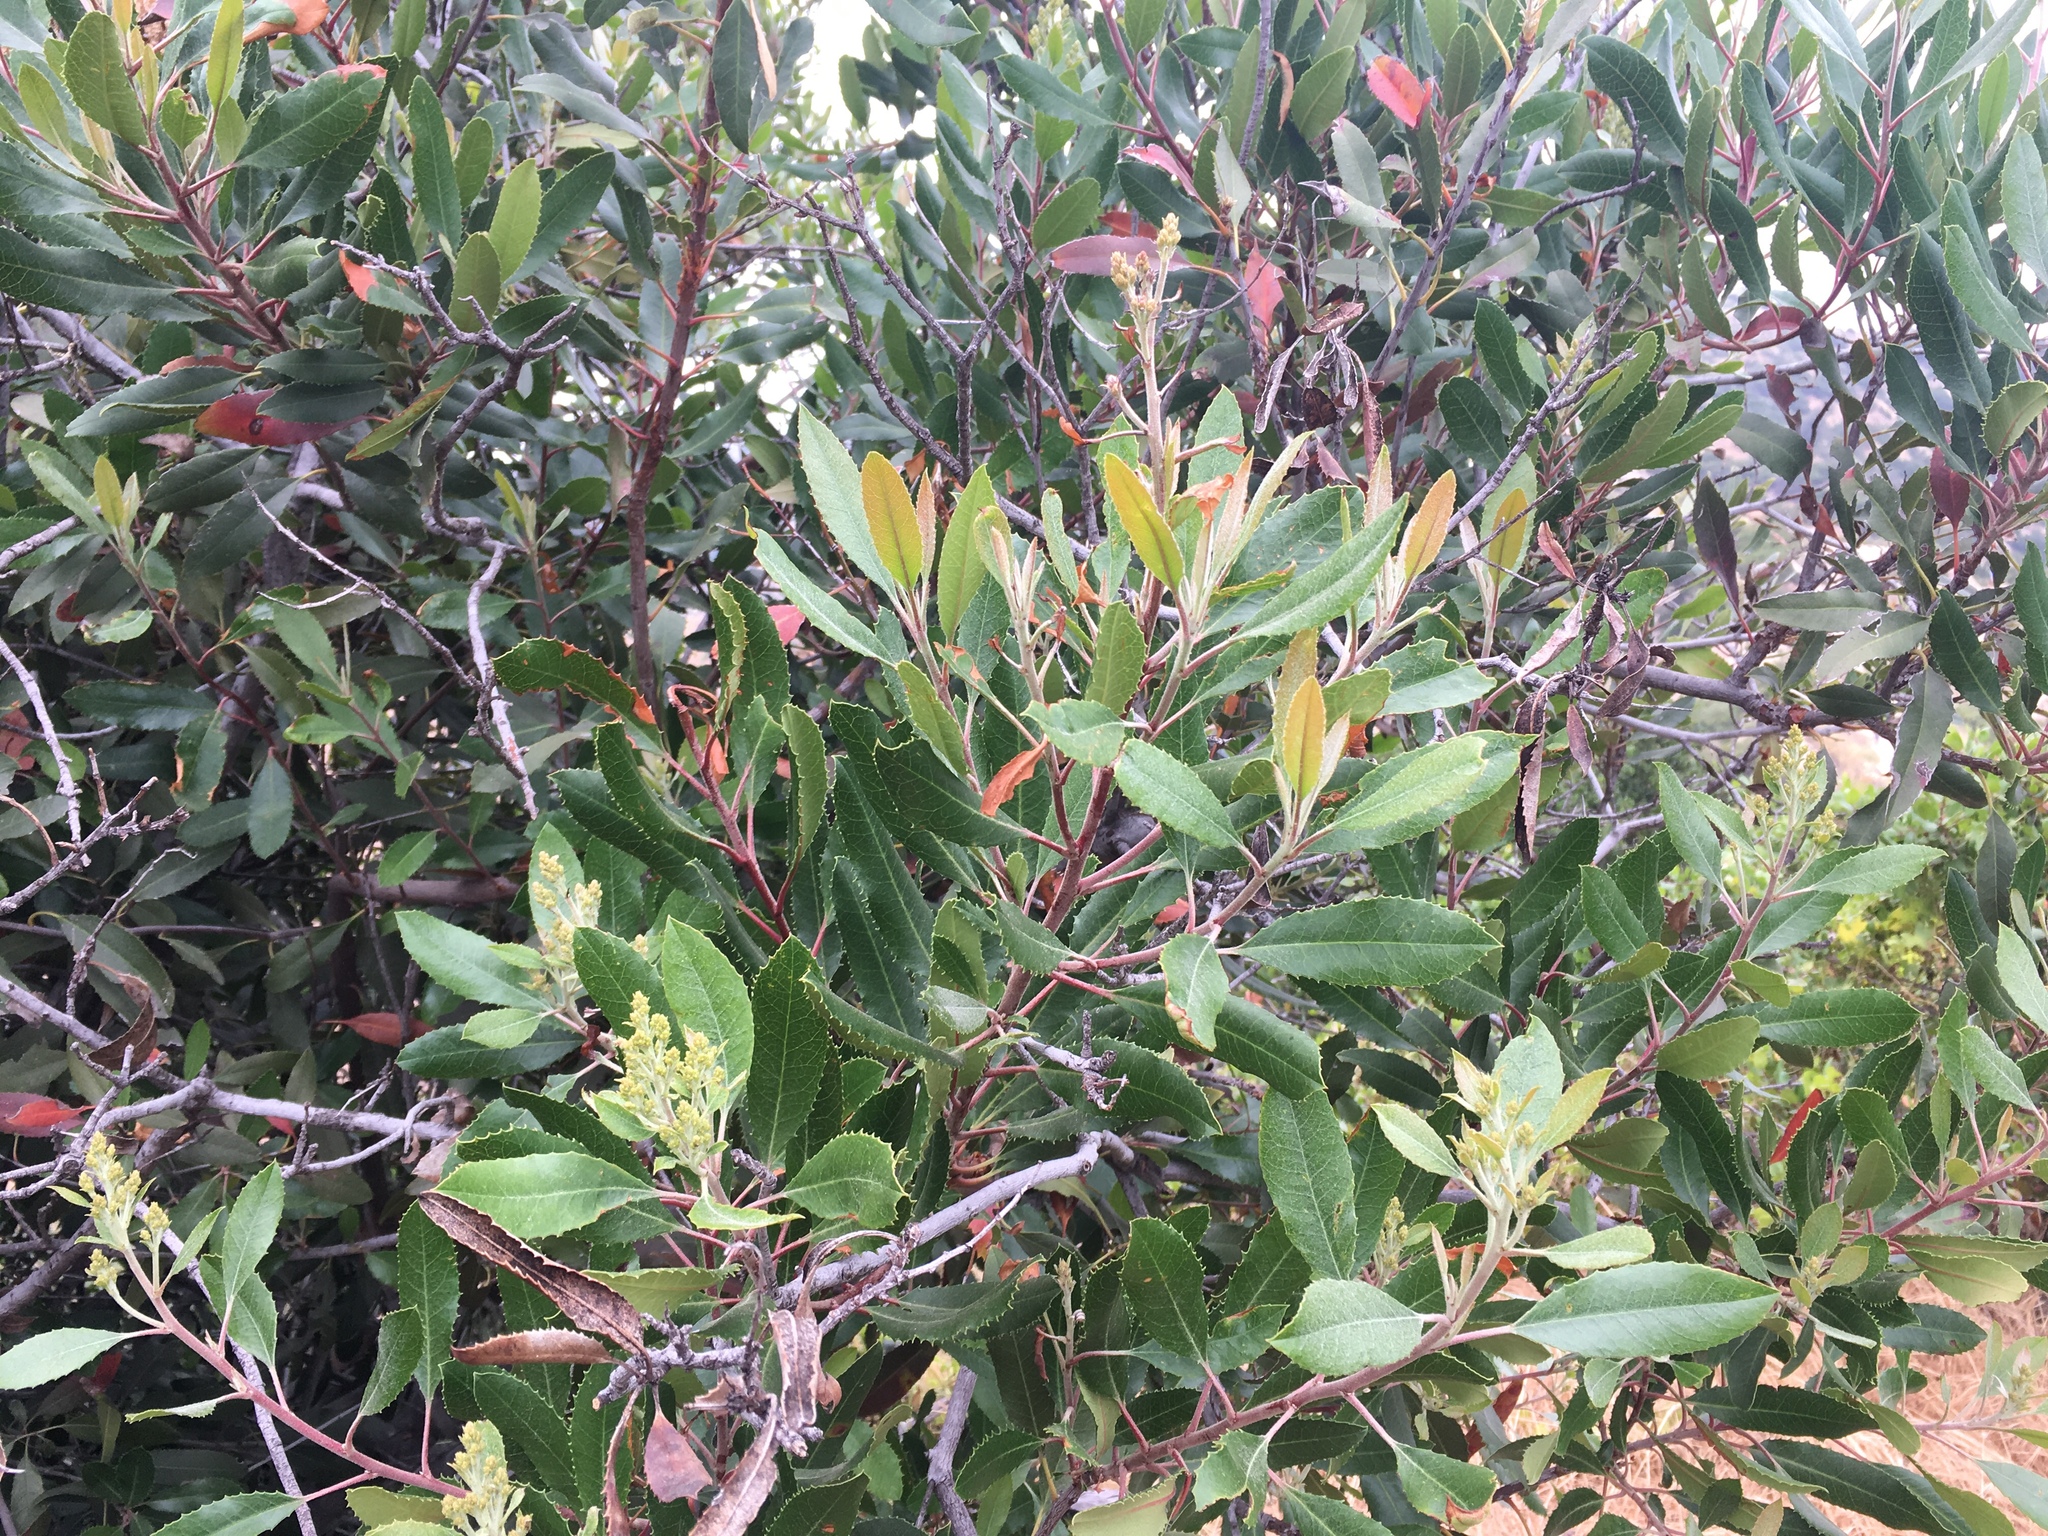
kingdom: Plantae
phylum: Tracheophyta
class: Magnoliopsida
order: Rosales
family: Rosaceae
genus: Heteromeles
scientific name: Heteromeles arbutifolia
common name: California-holly
